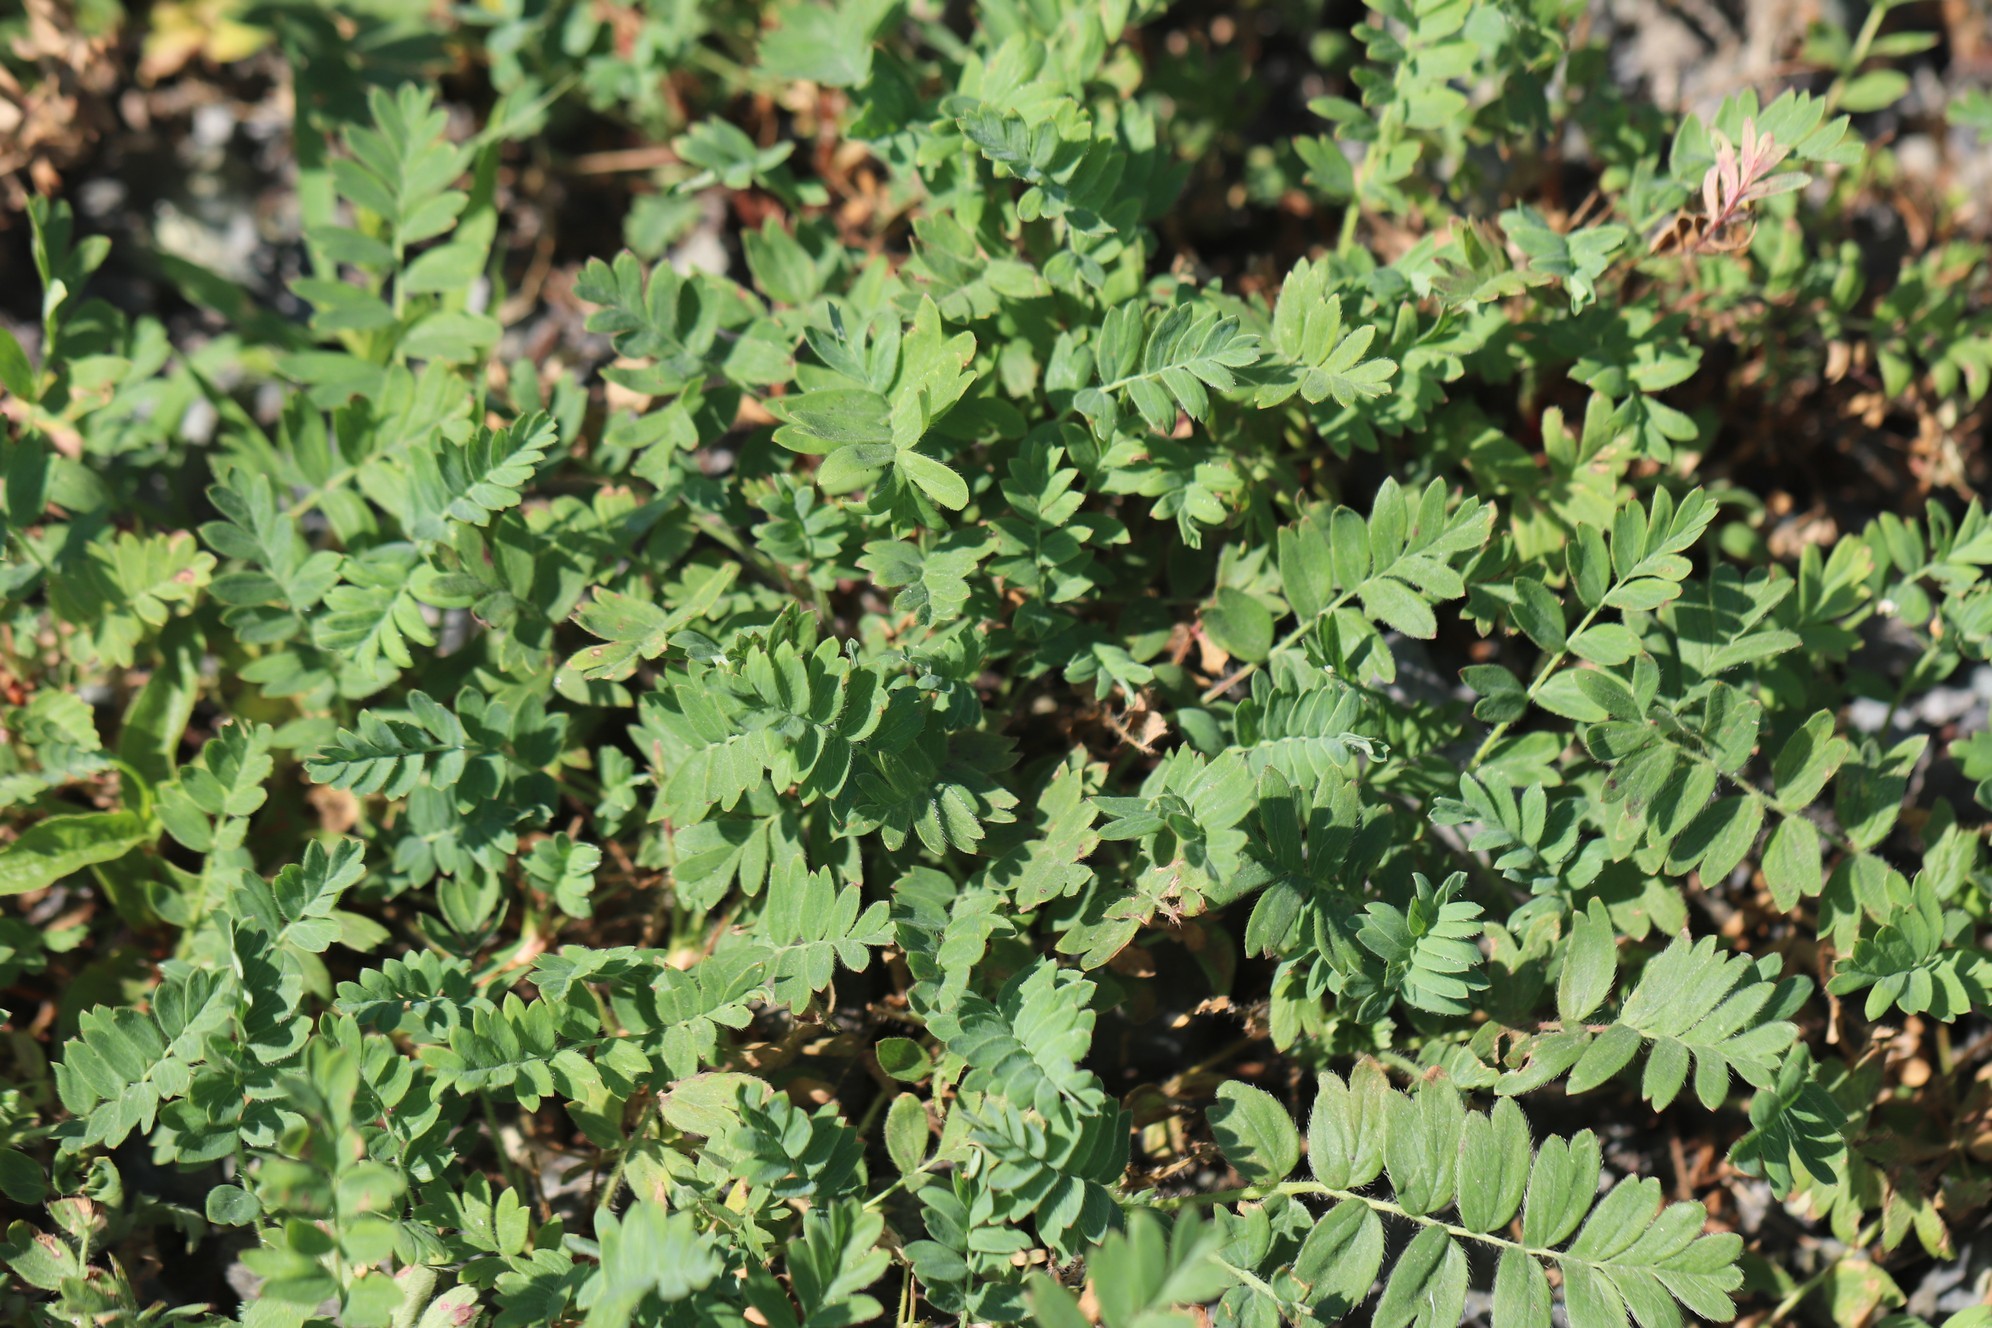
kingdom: Plantae
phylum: Tracheophyta
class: Magnoliopsida
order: Rosales
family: Rosaceae
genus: Sibbaldianthe
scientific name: Sibbaldianthe bifurca
